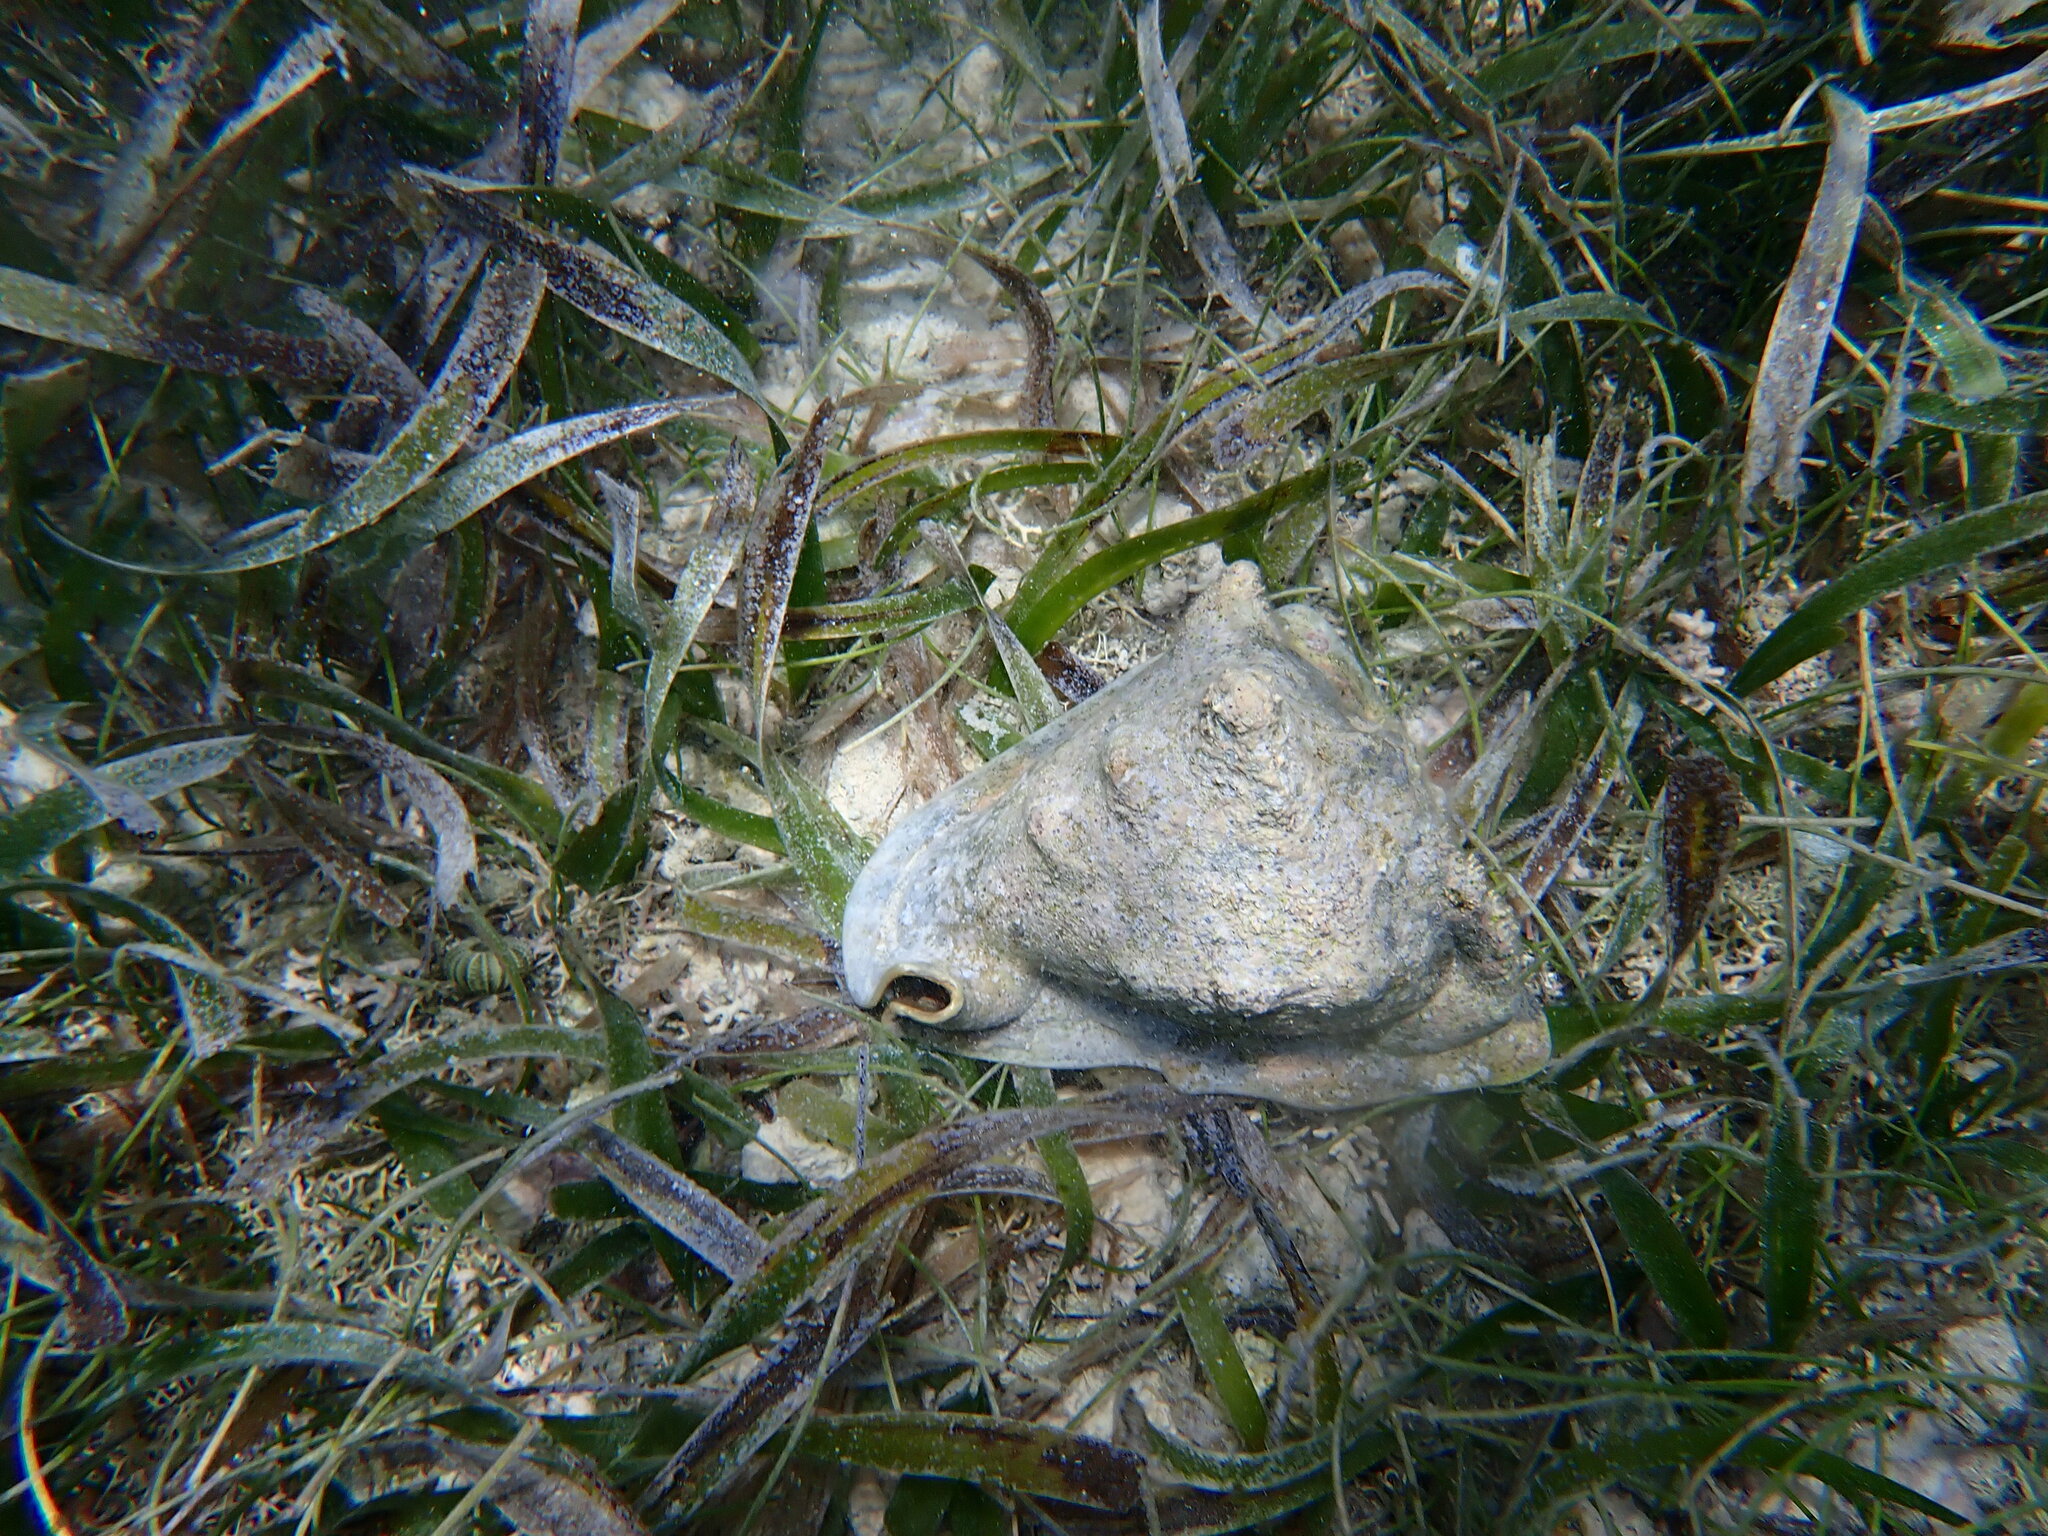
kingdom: Animalia
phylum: Mollusca
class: Gastropoda
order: Littorinimorpha
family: Cassidae
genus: Cassis
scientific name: Cassis tuberosa
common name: Caribbean helmet
